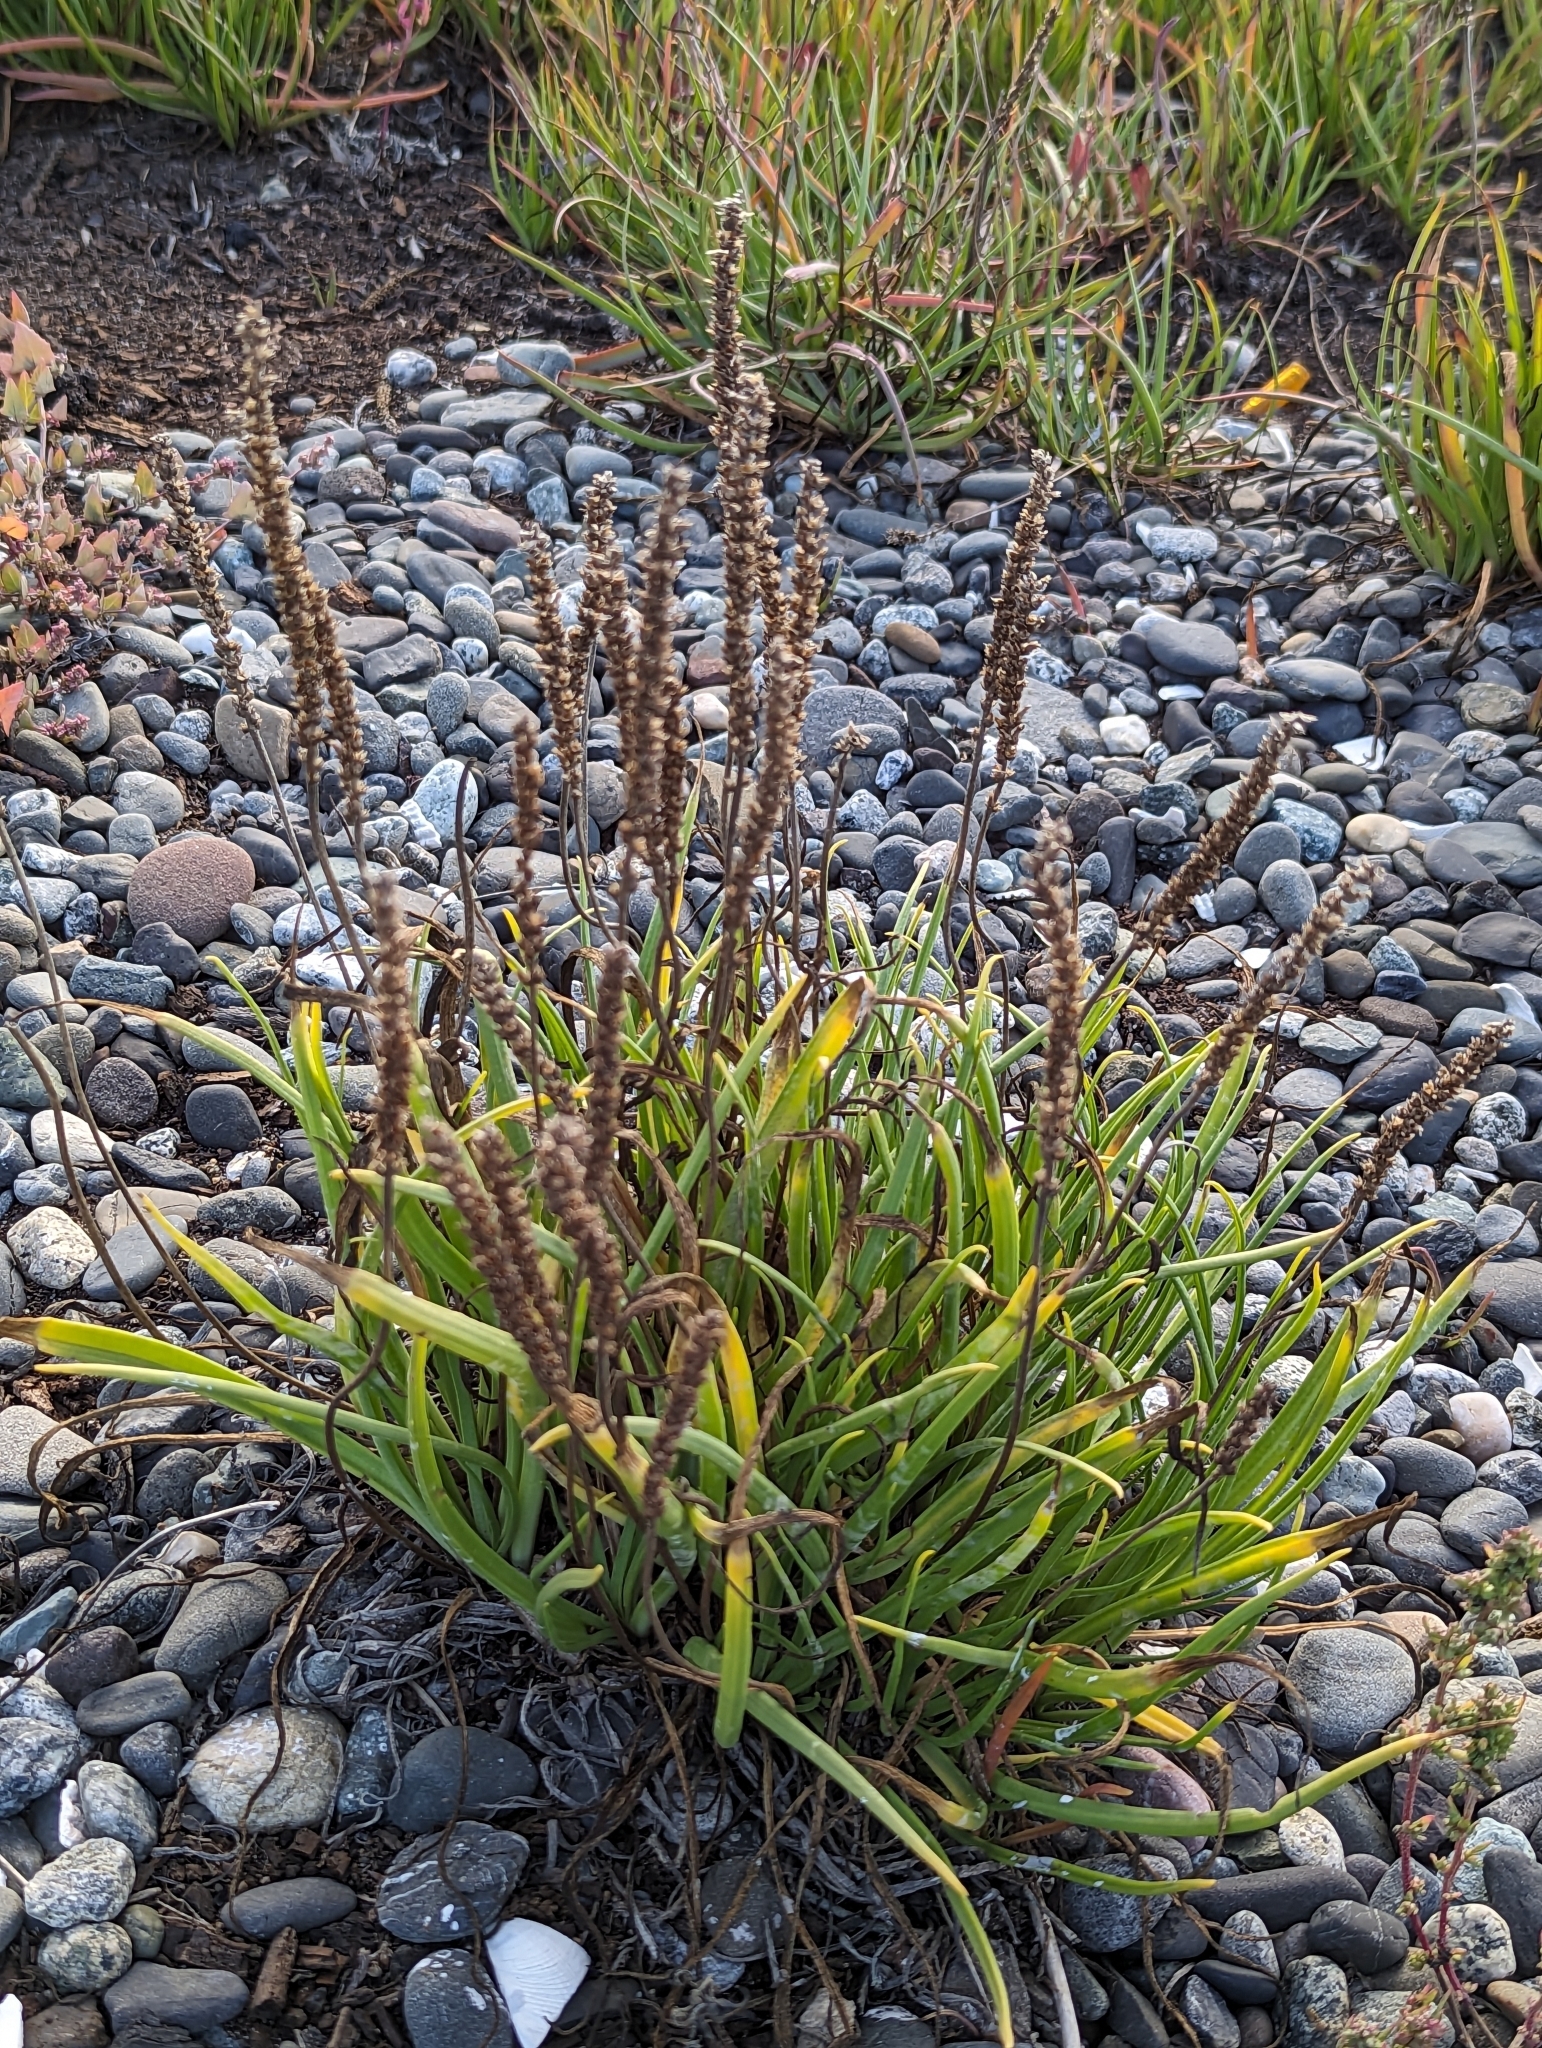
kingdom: Plantae
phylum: Tracheophyta
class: Magnoliopsida
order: Lamiales
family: Plantaginaceae
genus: Plantago
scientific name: Plantago maritima
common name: Sea plantain
